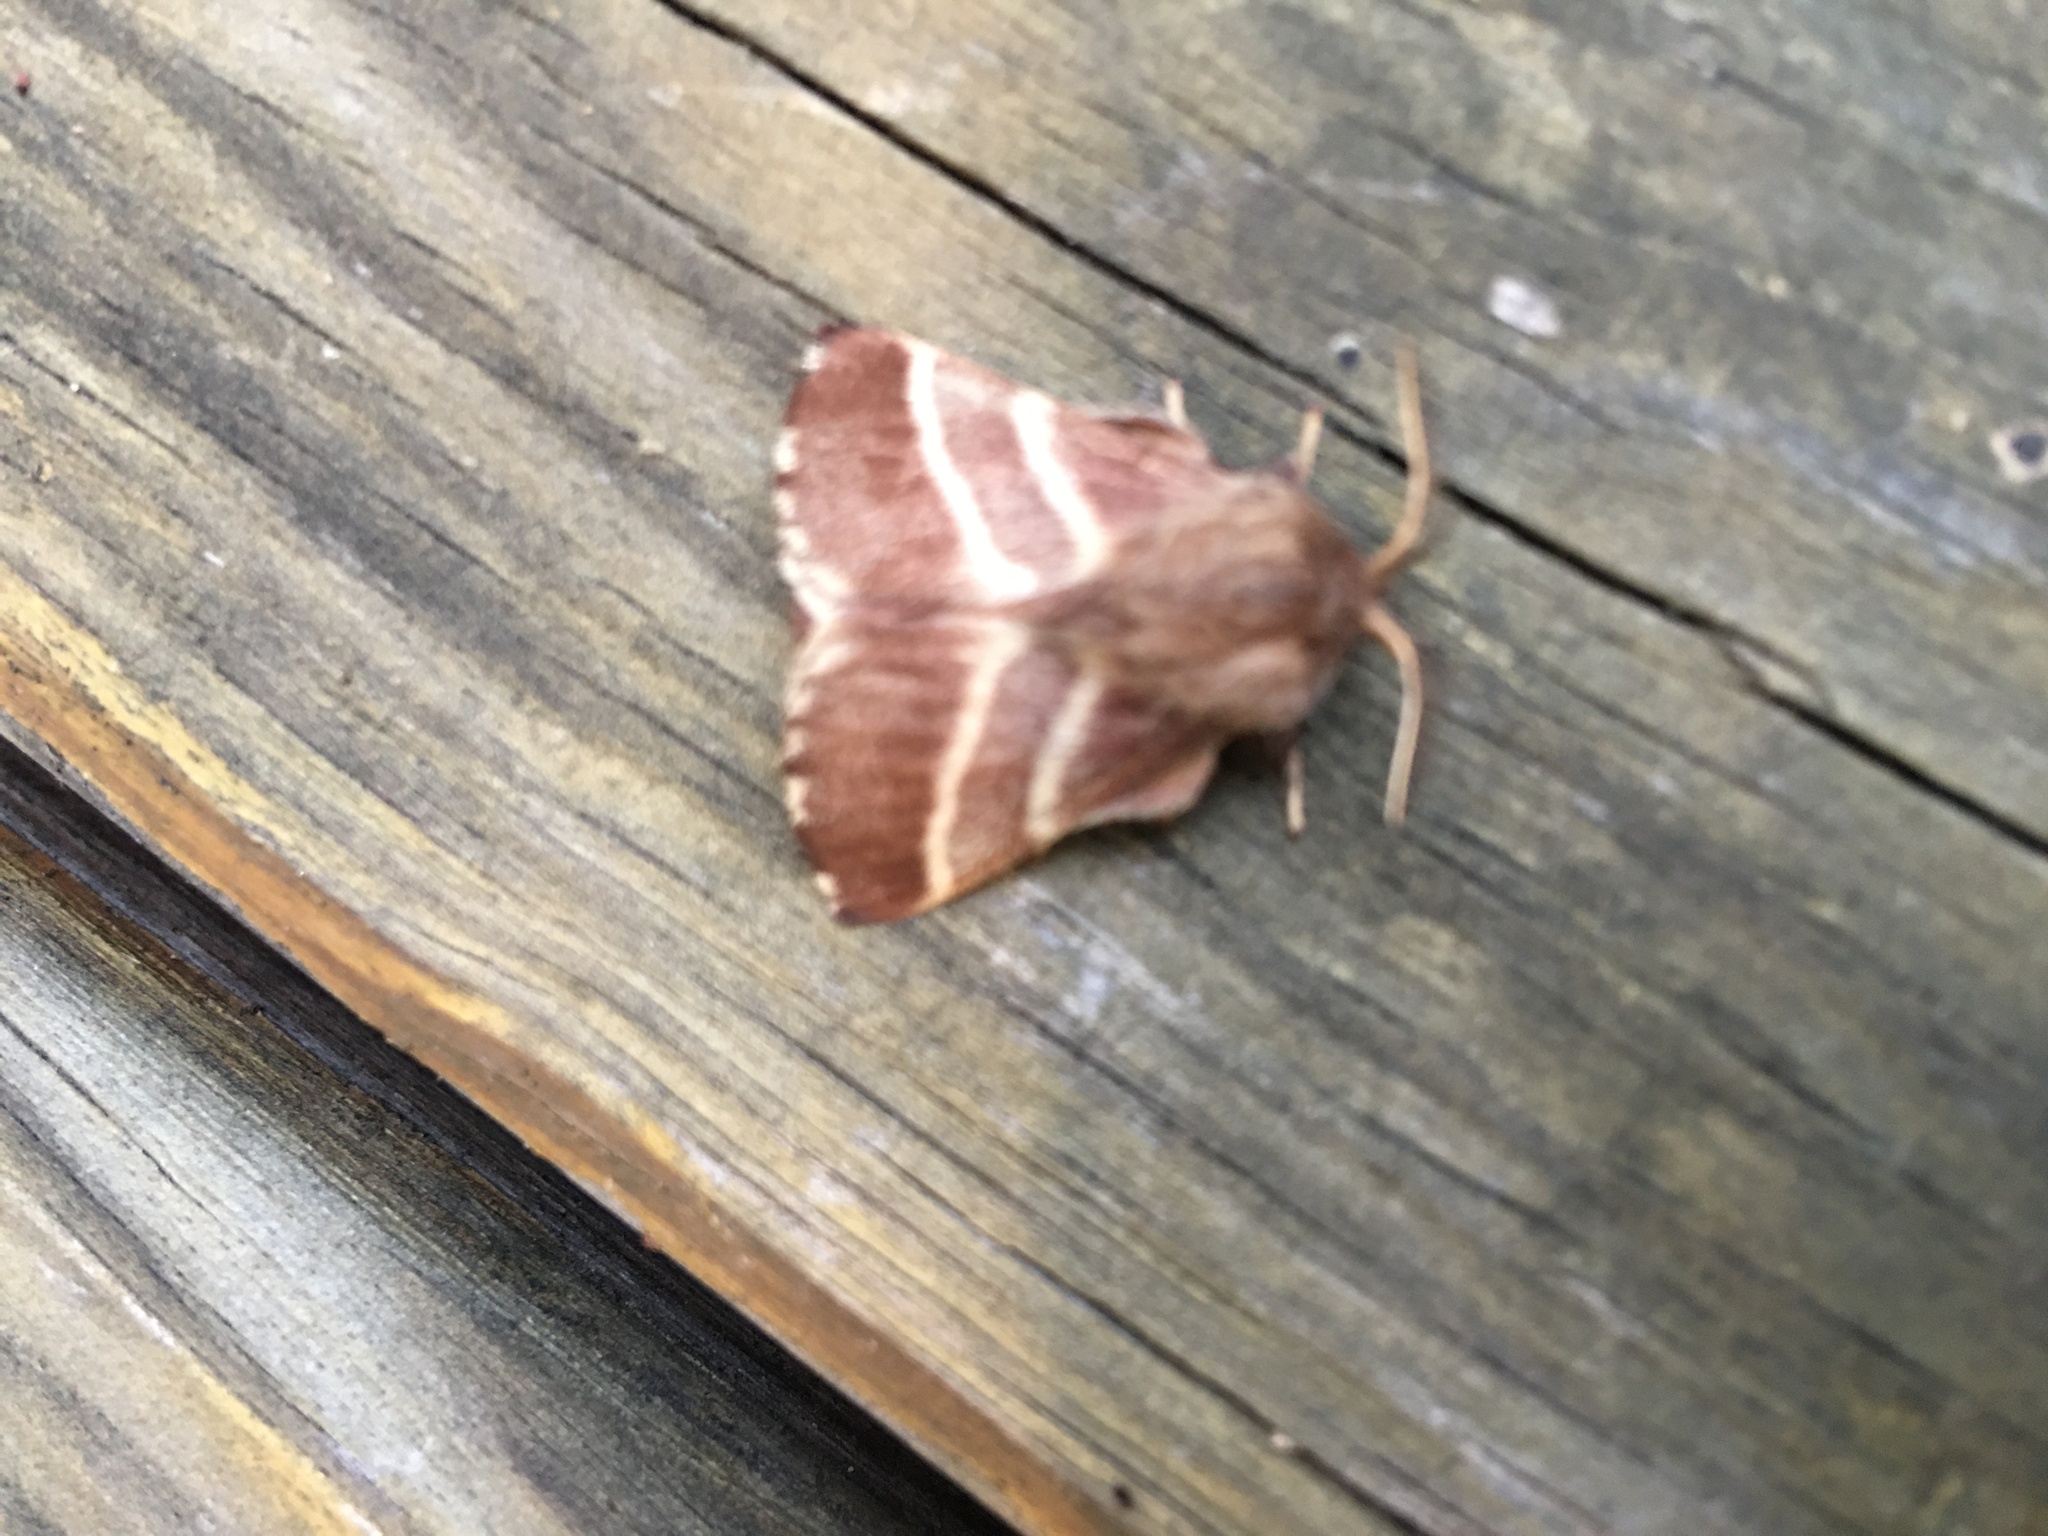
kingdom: Animalia
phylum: Arthropoda
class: Insecta
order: Lepidoptera
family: Lasiocampidae
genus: Malacosoma
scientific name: Malacosoma americana
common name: Eastern tent caterpillar moth
